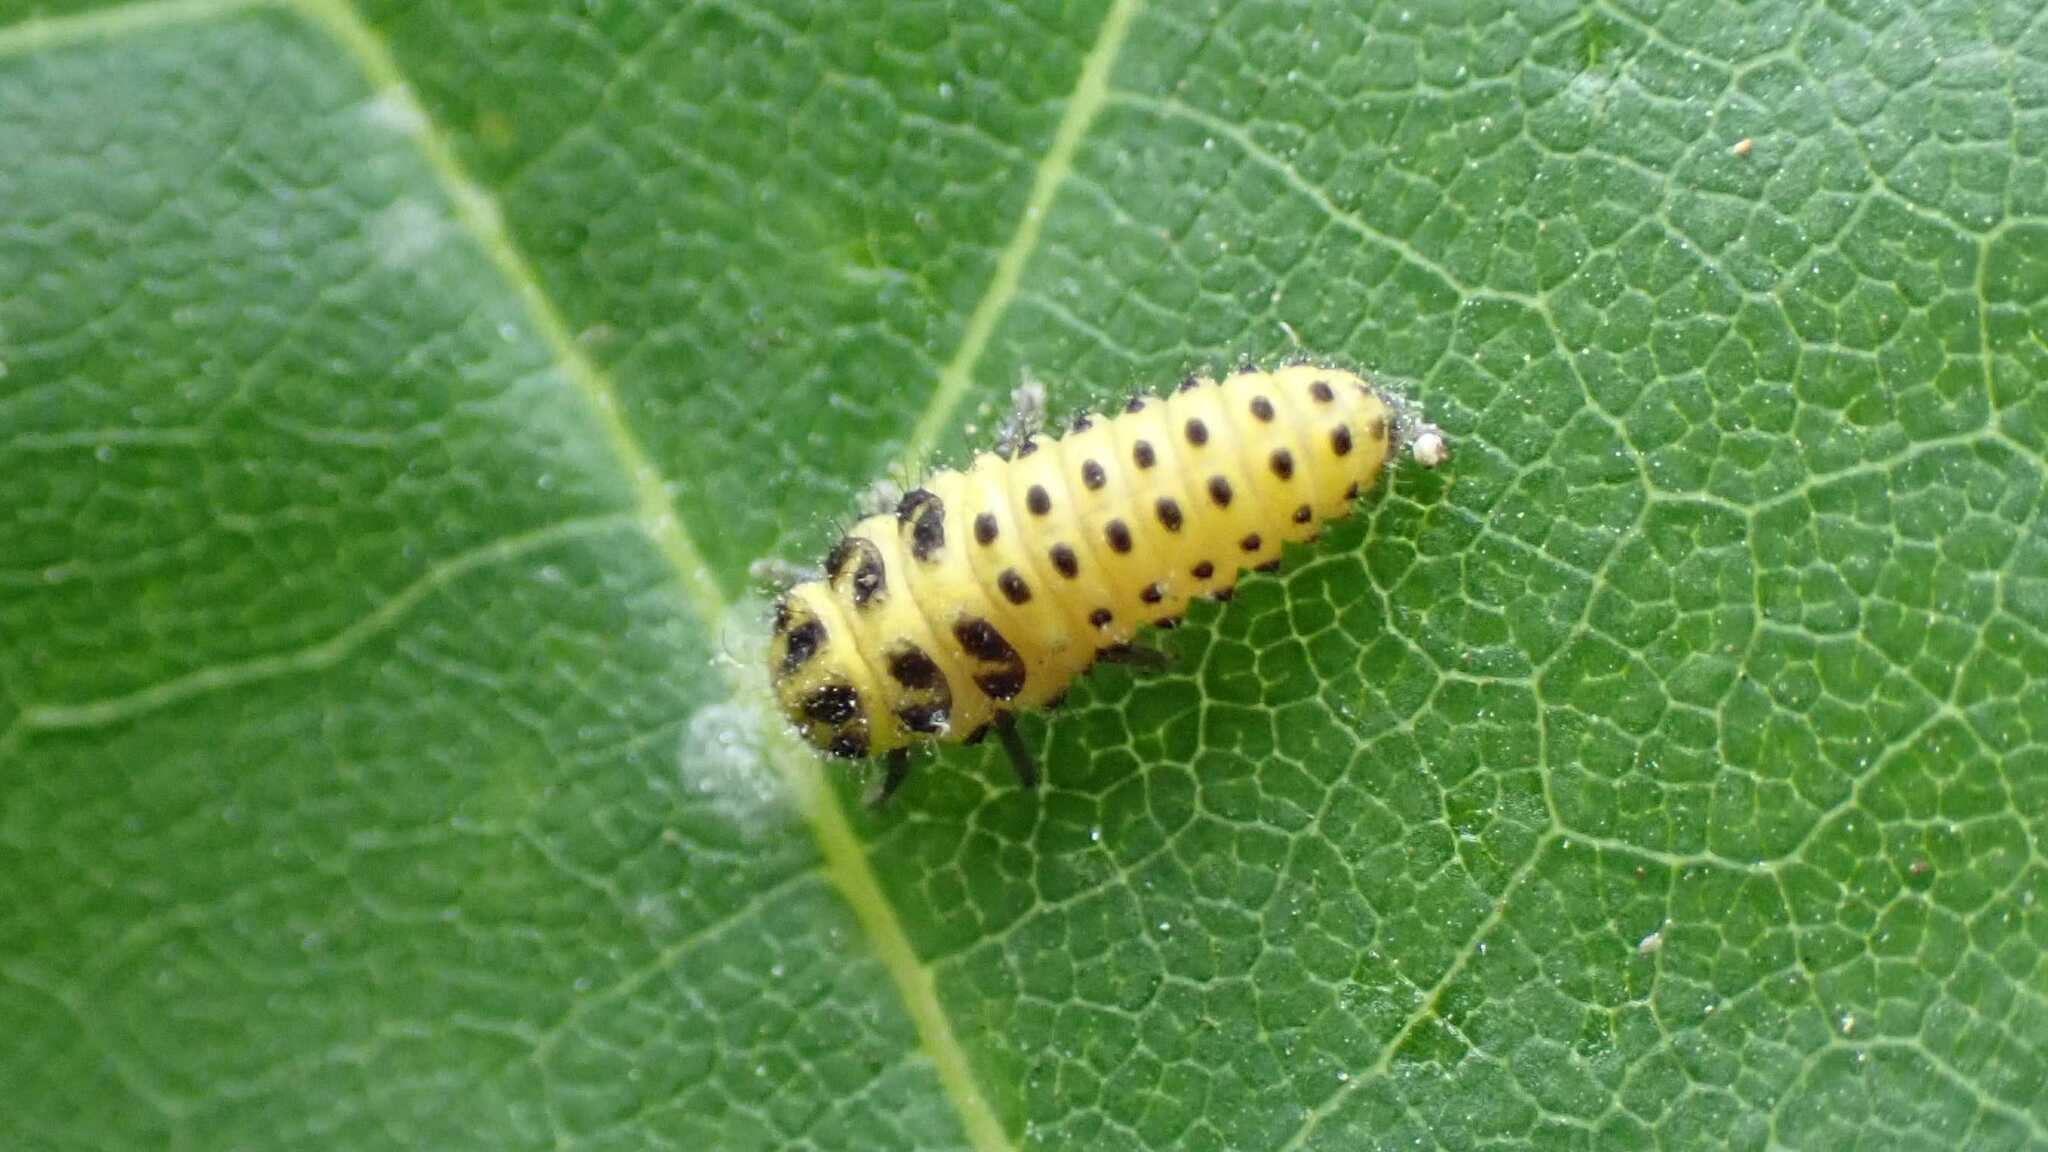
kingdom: Animalia
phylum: Arthropoda
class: Insecta
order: Coleoptera
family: Coccinellidae
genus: Psyllobora
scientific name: Psyllobora vigintiduopunctata
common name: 22-spot ladybird
